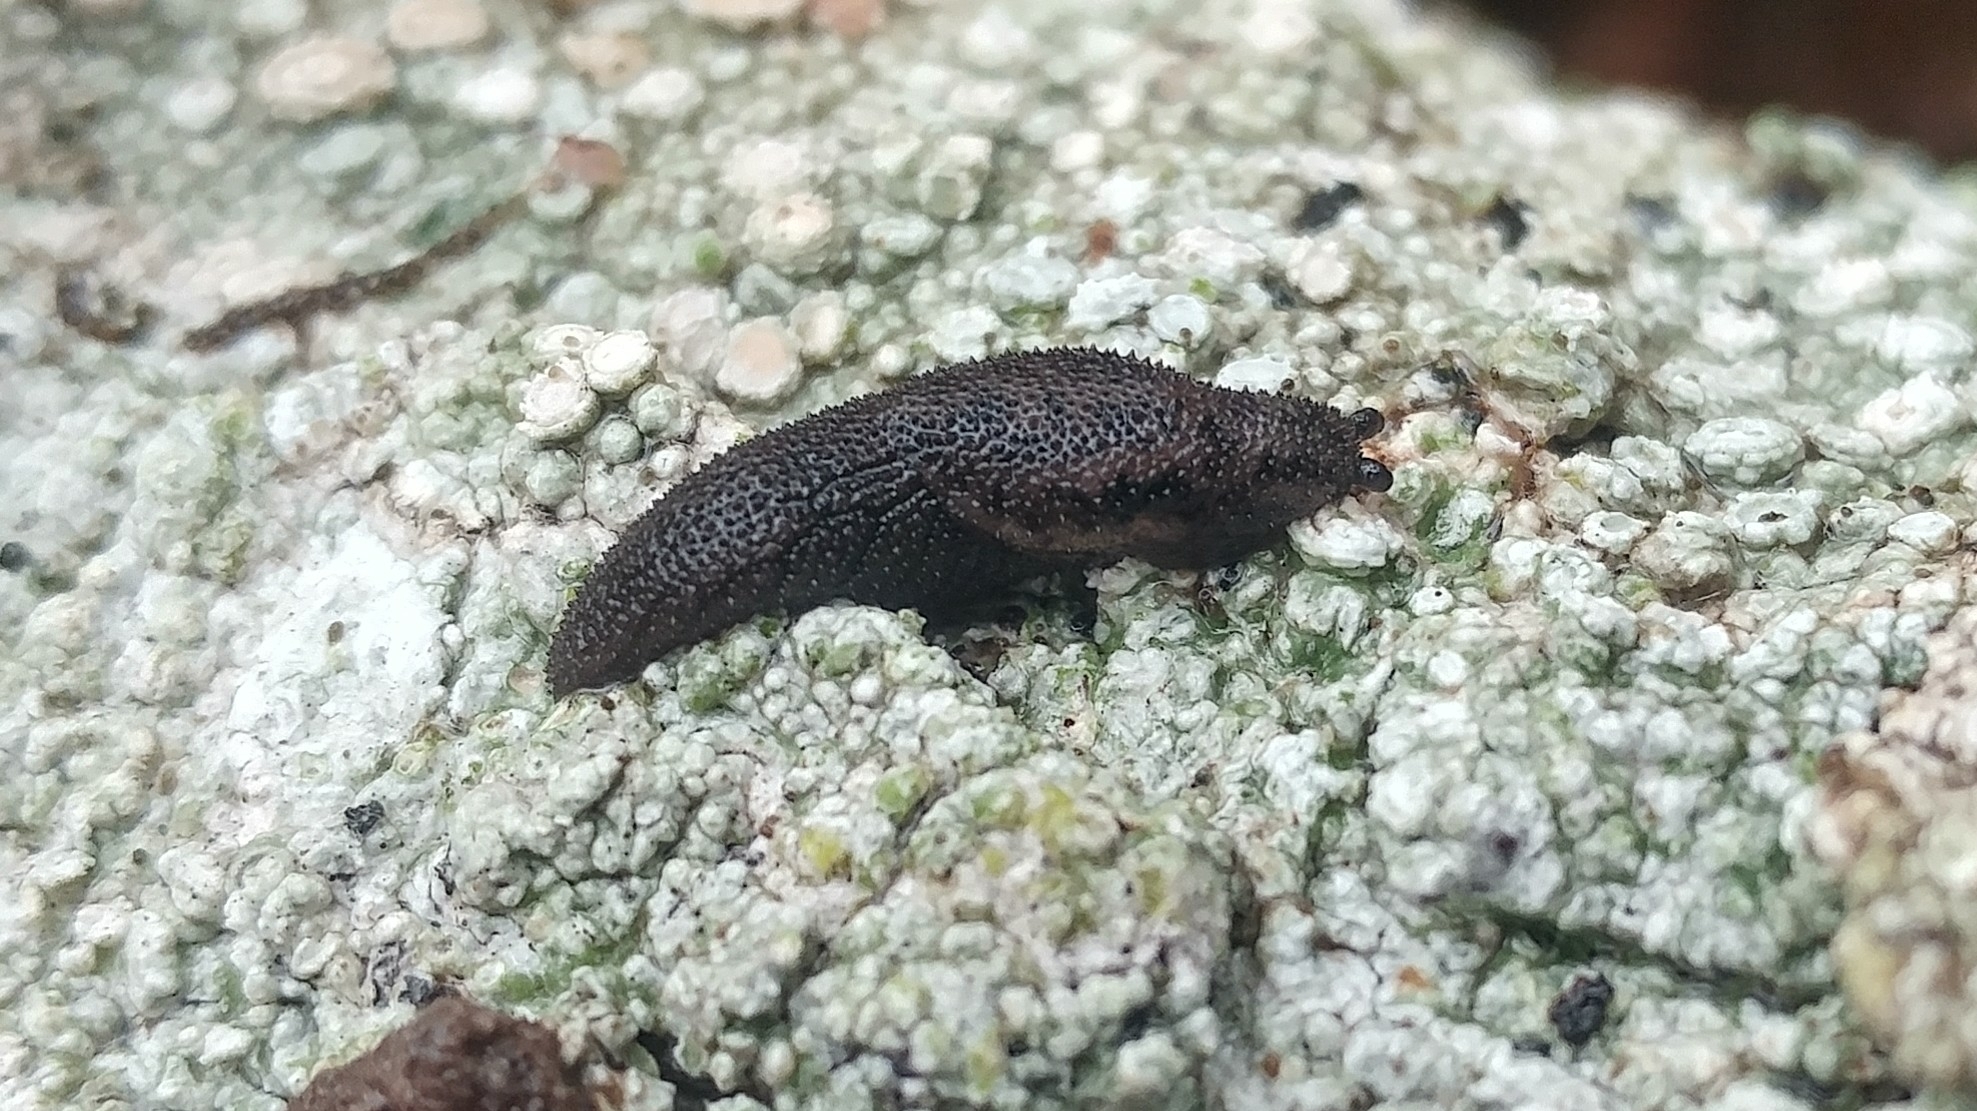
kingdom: Animalia
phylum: Mollusca
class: Gastropoda
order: Stylommatophora
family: Ariolimacidae
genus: Prophysaon
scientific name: Prophysaon dubium
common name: Papillose taildropper
